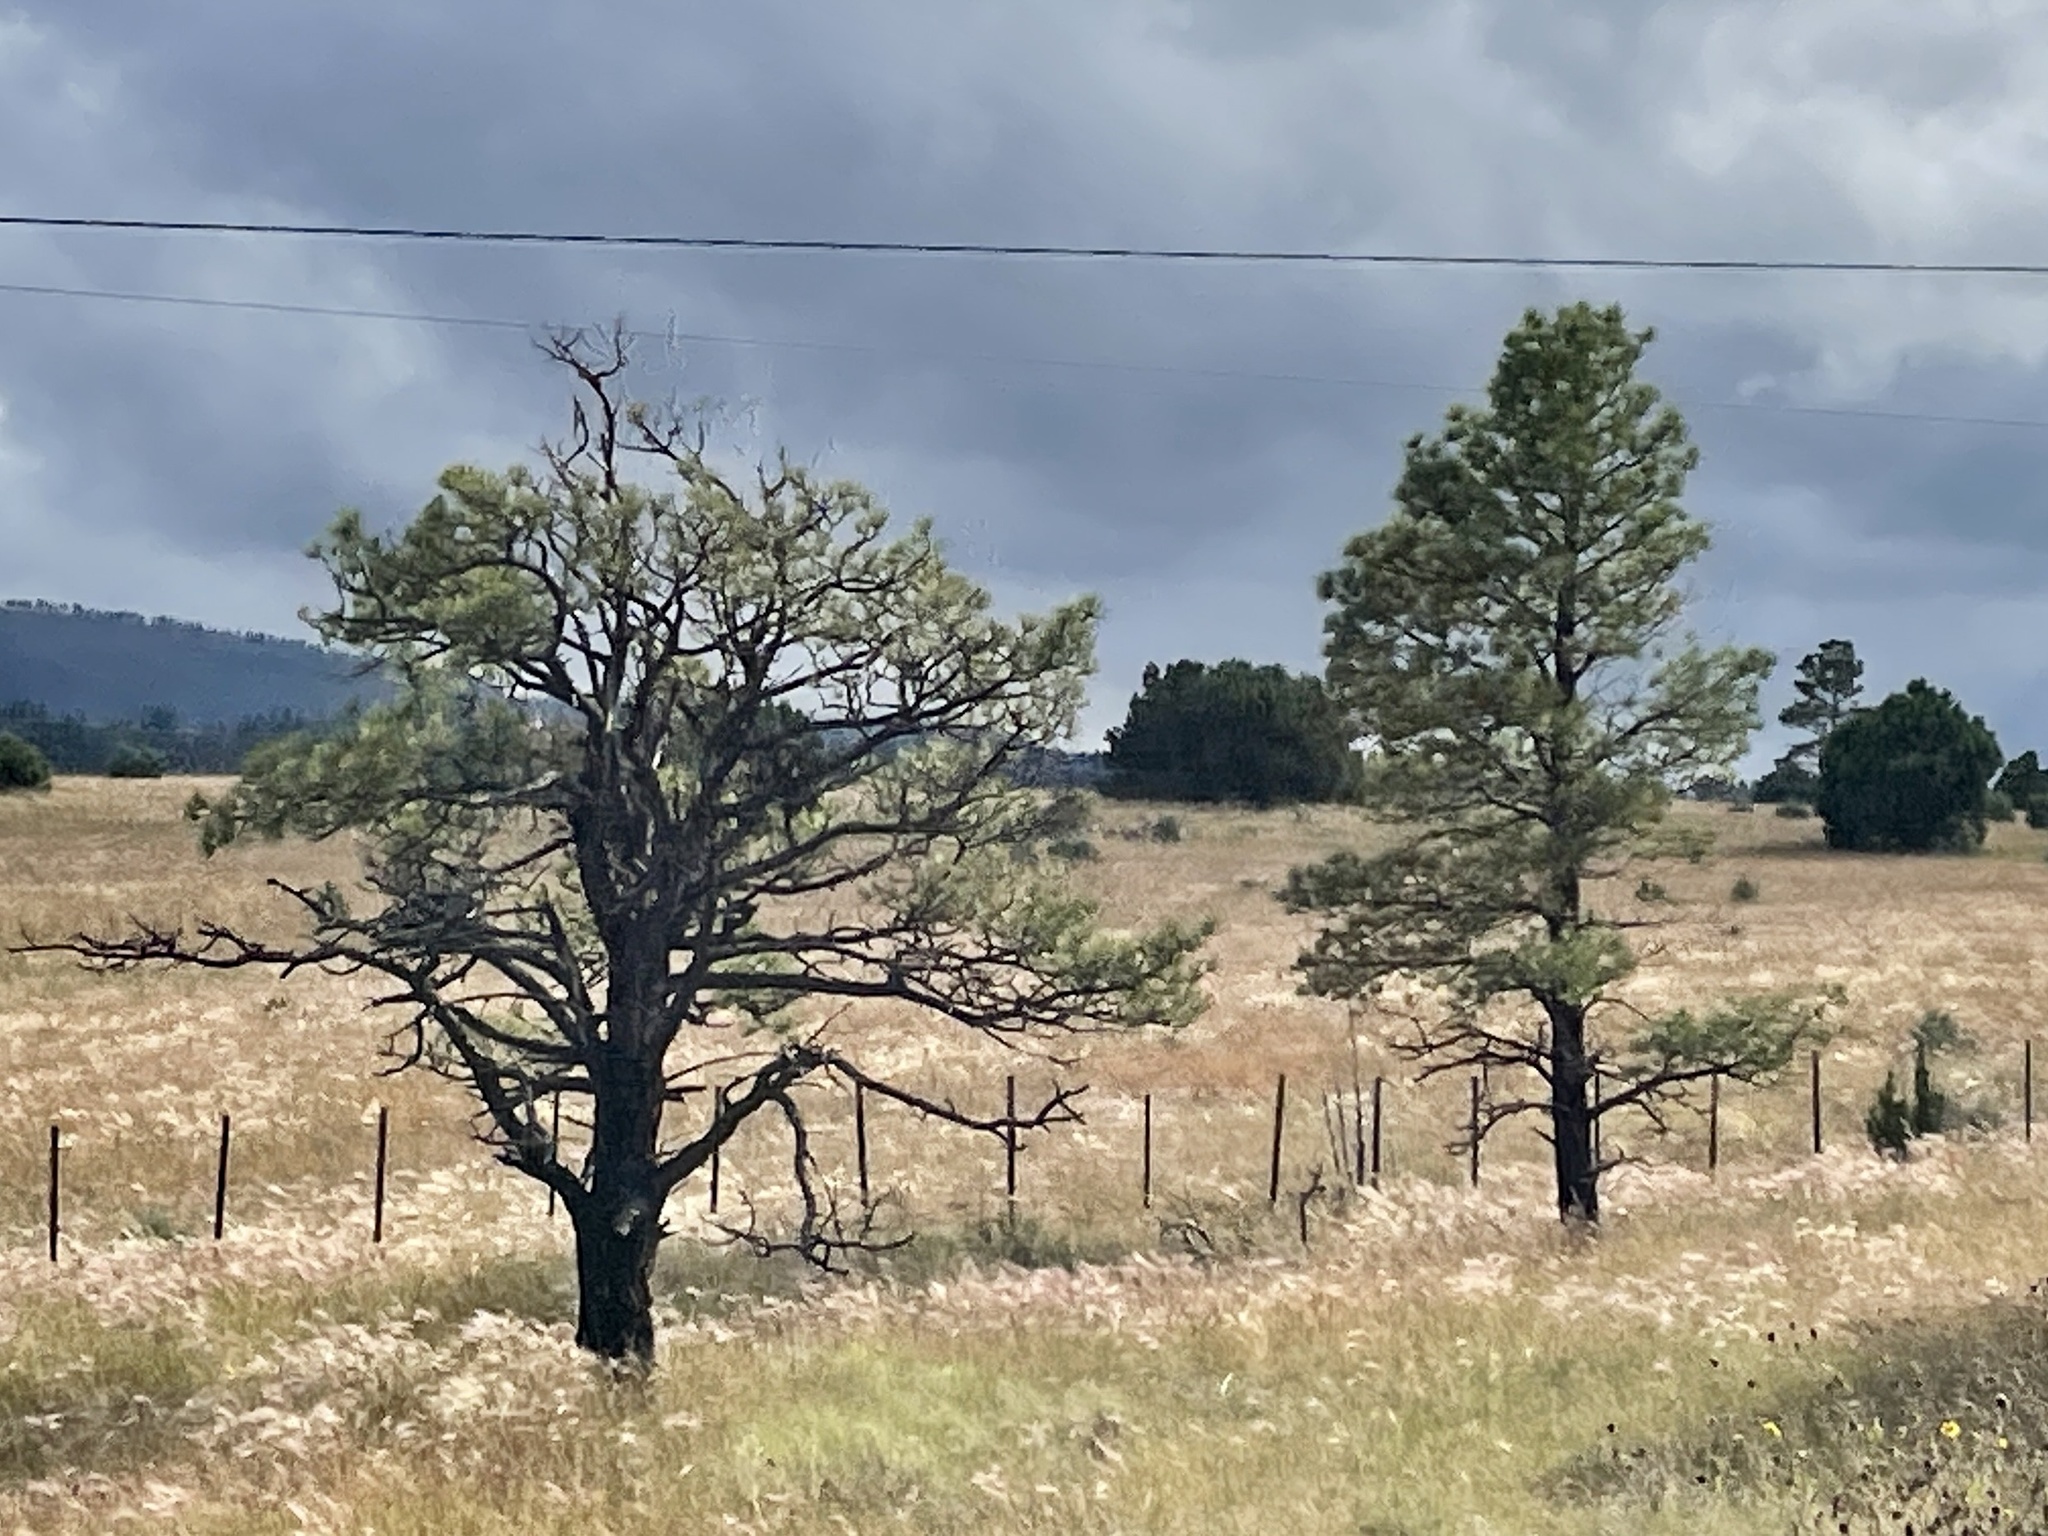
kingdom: Plantae
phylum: Tracheophyta
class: Pinopsida
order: Pinales
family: Pinaceae
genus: Pinus
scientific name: Pinus ponderosa
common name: Western yellow-pine
